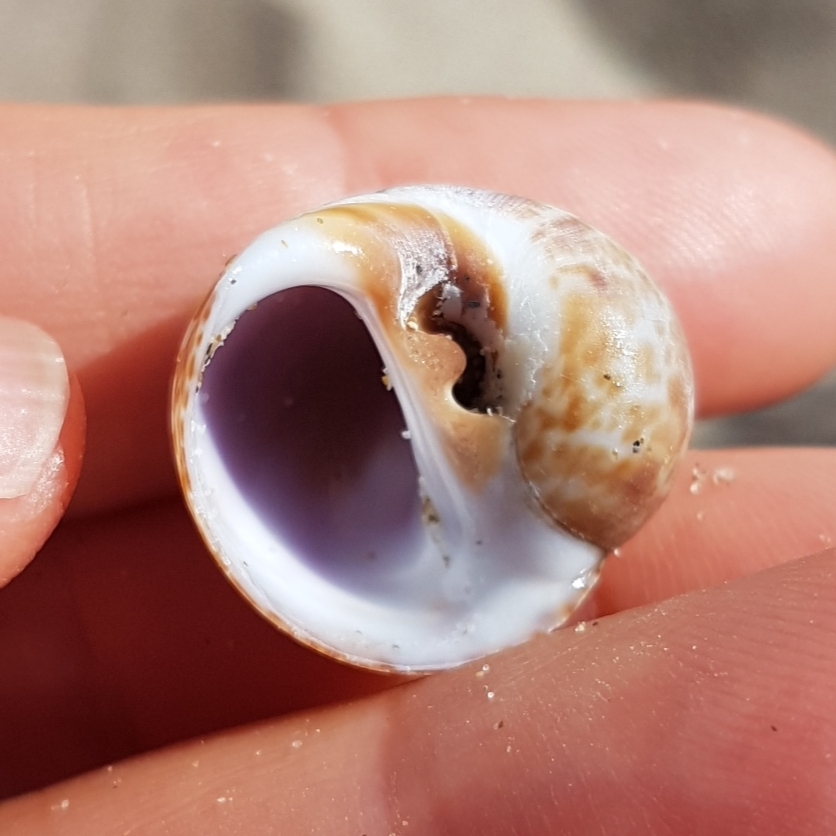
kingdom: Animalia
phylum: Mollusca
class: Gastropoda
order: Littorinimorpha
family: Naticidae
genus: Naticarius
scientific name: Naticarius hebraeus
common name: Hebrew moon shell
